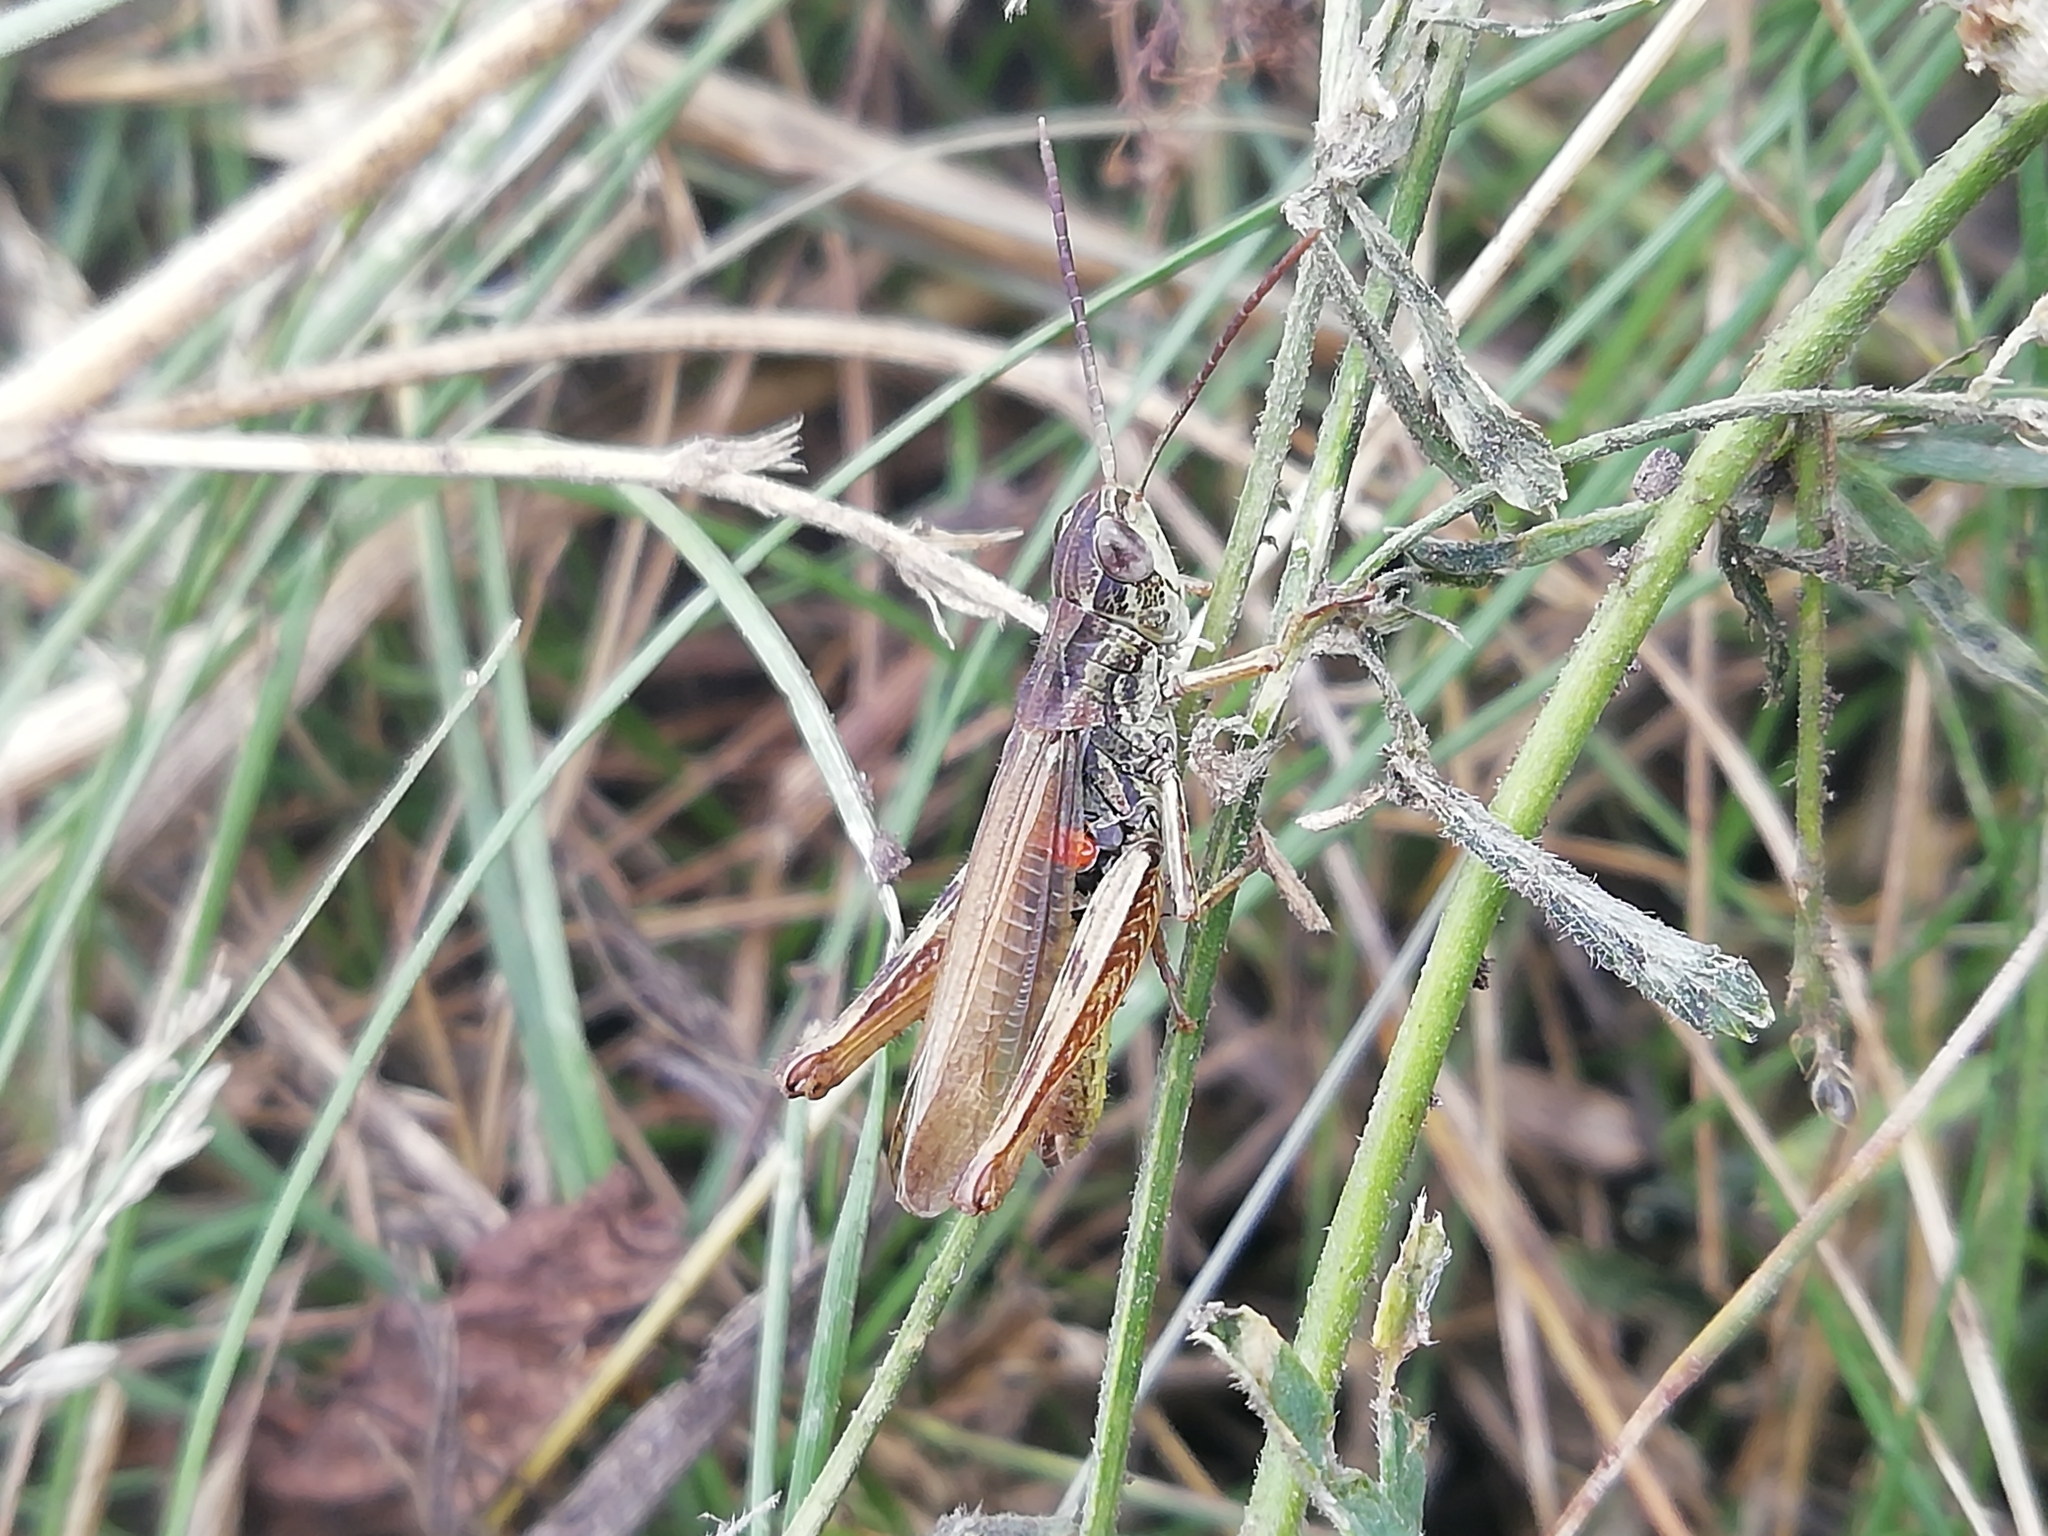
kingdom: Animalia
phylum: Arthropoda
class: Insecta
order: Orthoptera
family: Acrididae
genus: Chorthippus
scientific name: Chorthippus apricarius
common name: Upland field grasshopper
